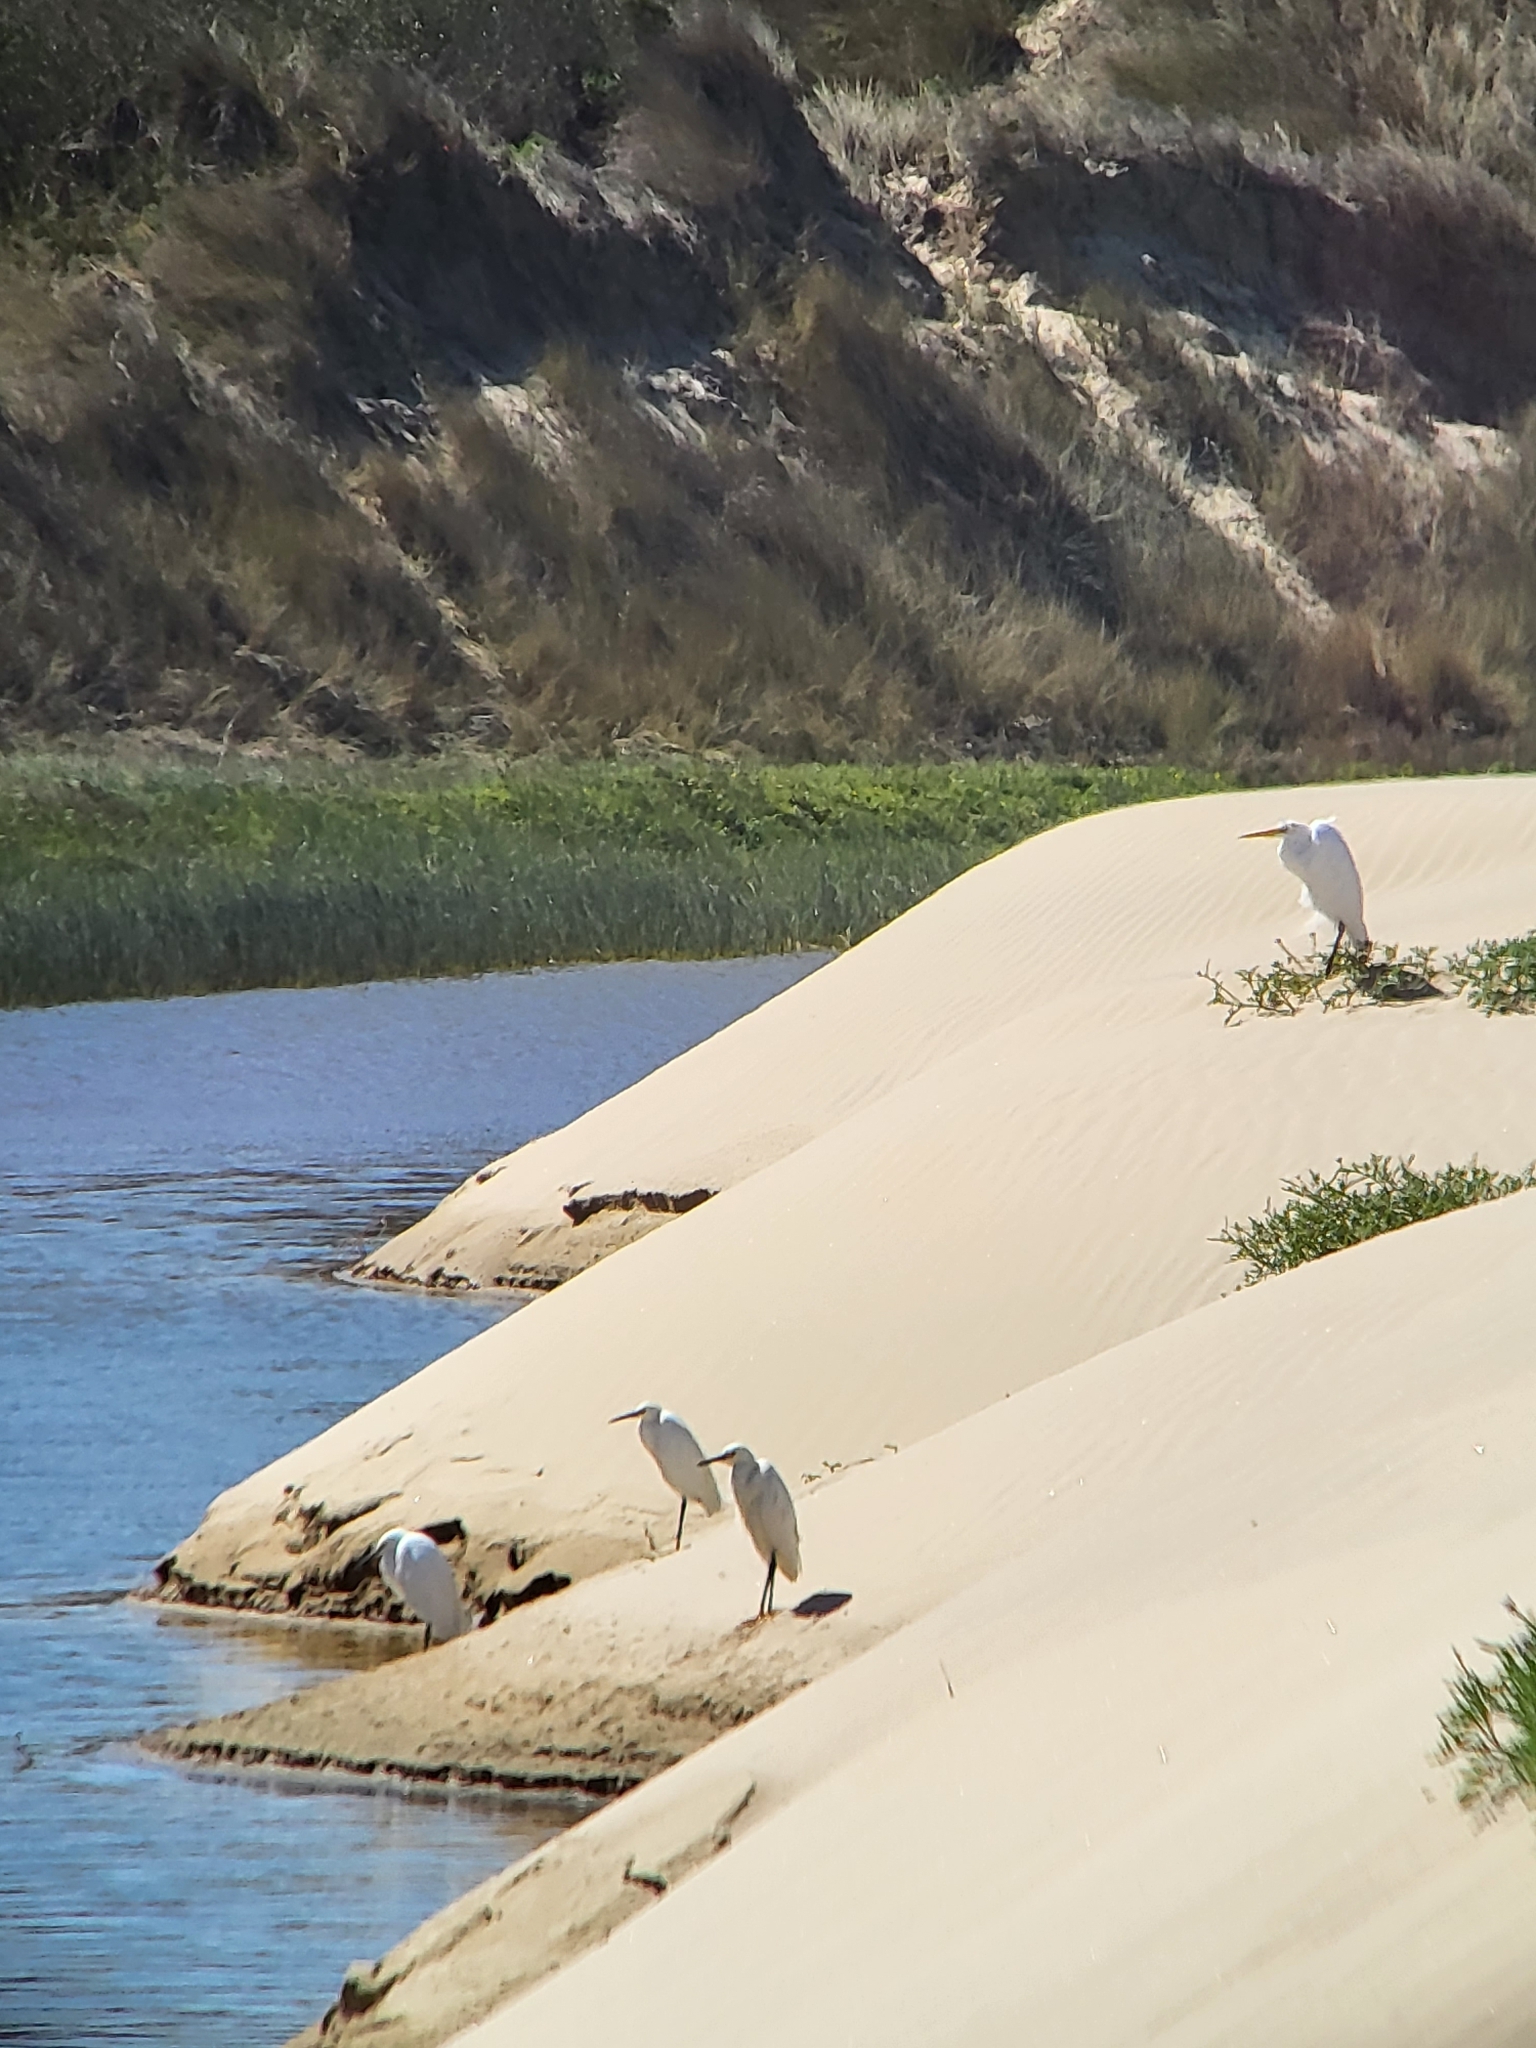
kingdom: Animalia
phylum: Chordata
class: Aves
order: Pelecaniformes
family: Ardeidae
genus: Ardea
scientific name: Ardea alba
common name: Great egret
